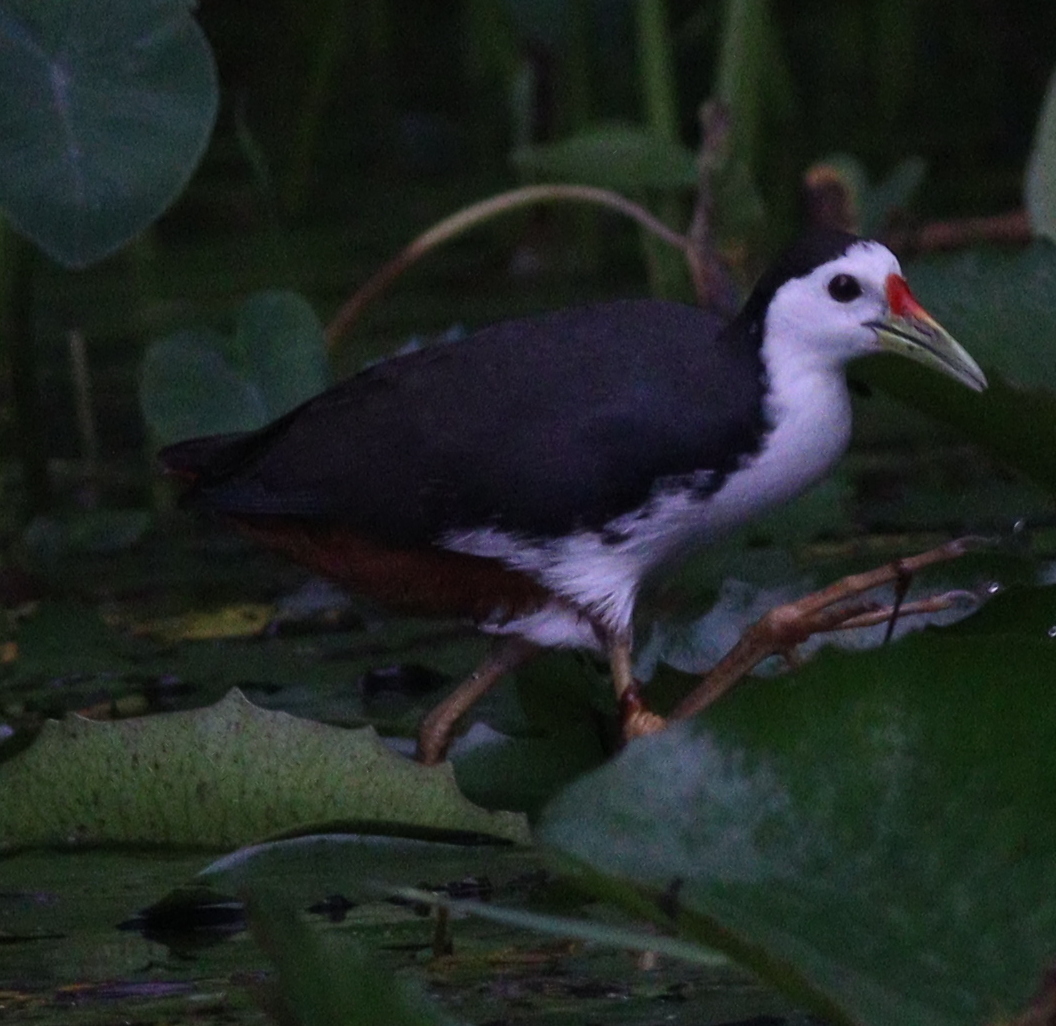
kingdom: Animalia
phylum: Chordata
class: Aves
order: Gruiformes
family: Rallidae
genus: Amaurornis
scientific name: Amaurornis phoenicurus
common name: White-breasted waterhen
